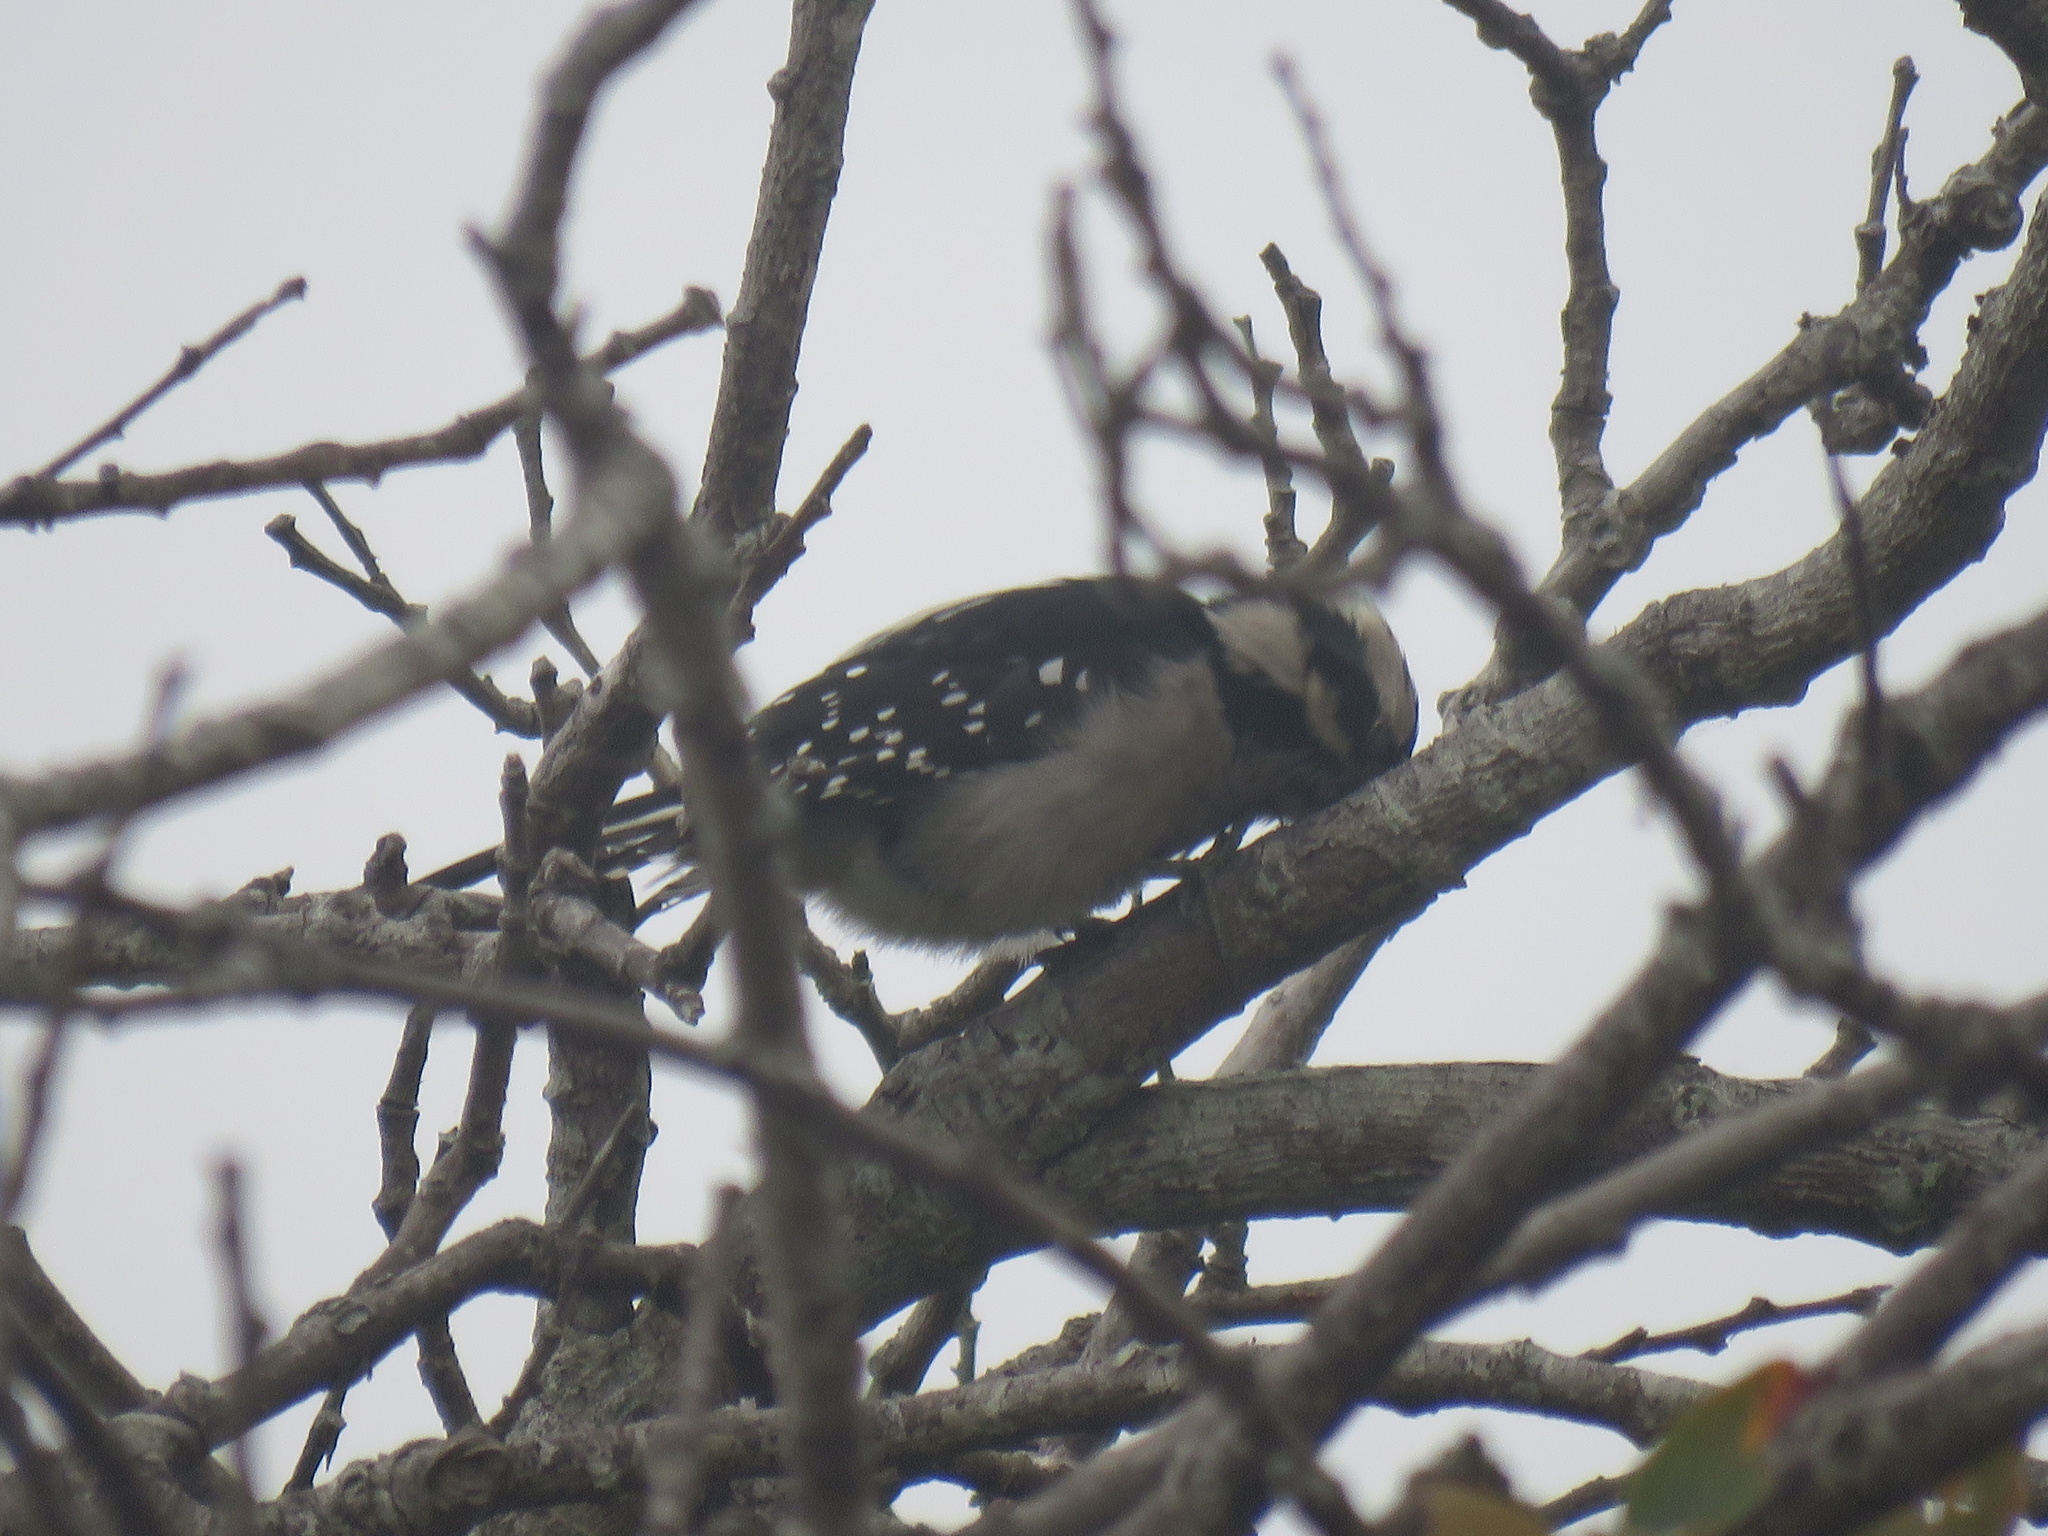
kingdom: Animalia
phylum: Chordata
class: Aves
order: Piciformes
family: Picidae
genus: Dryobates
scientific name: Dryobates pubescens
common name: Downy woodpecker
